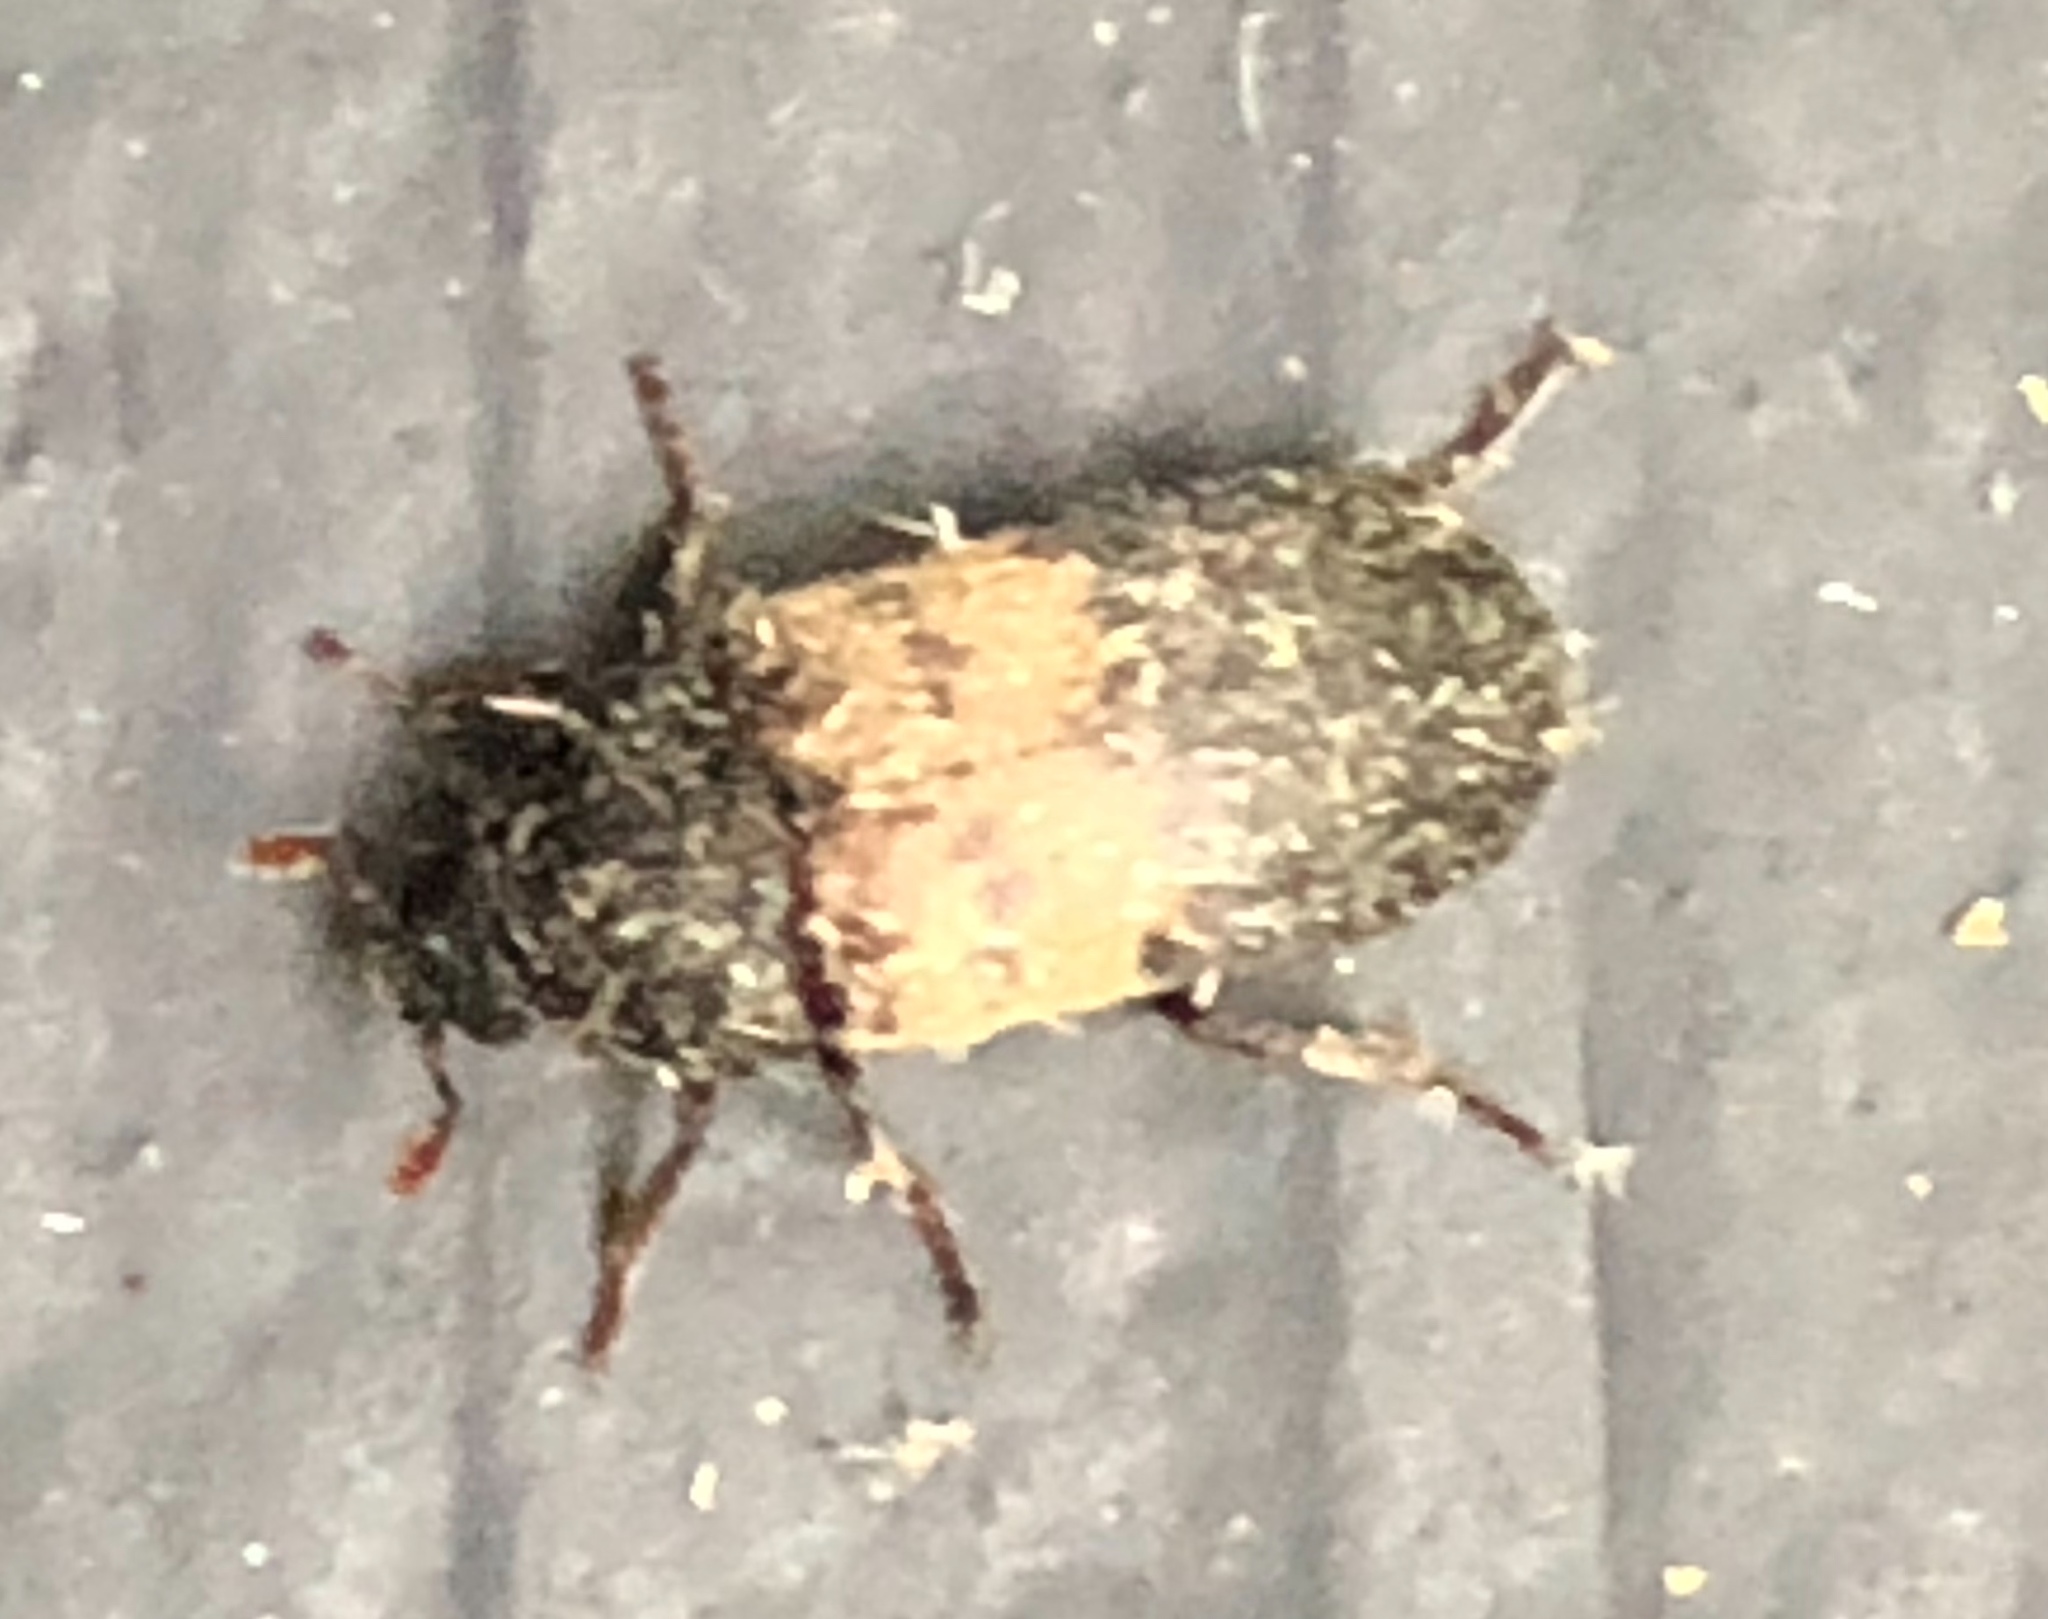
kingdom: Animalia
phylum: Arthropoda
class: Insecta
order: Coleoptera
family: Dermestidae
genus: Dermestes
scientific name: Dermestes lardarius
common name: Larder beetle
